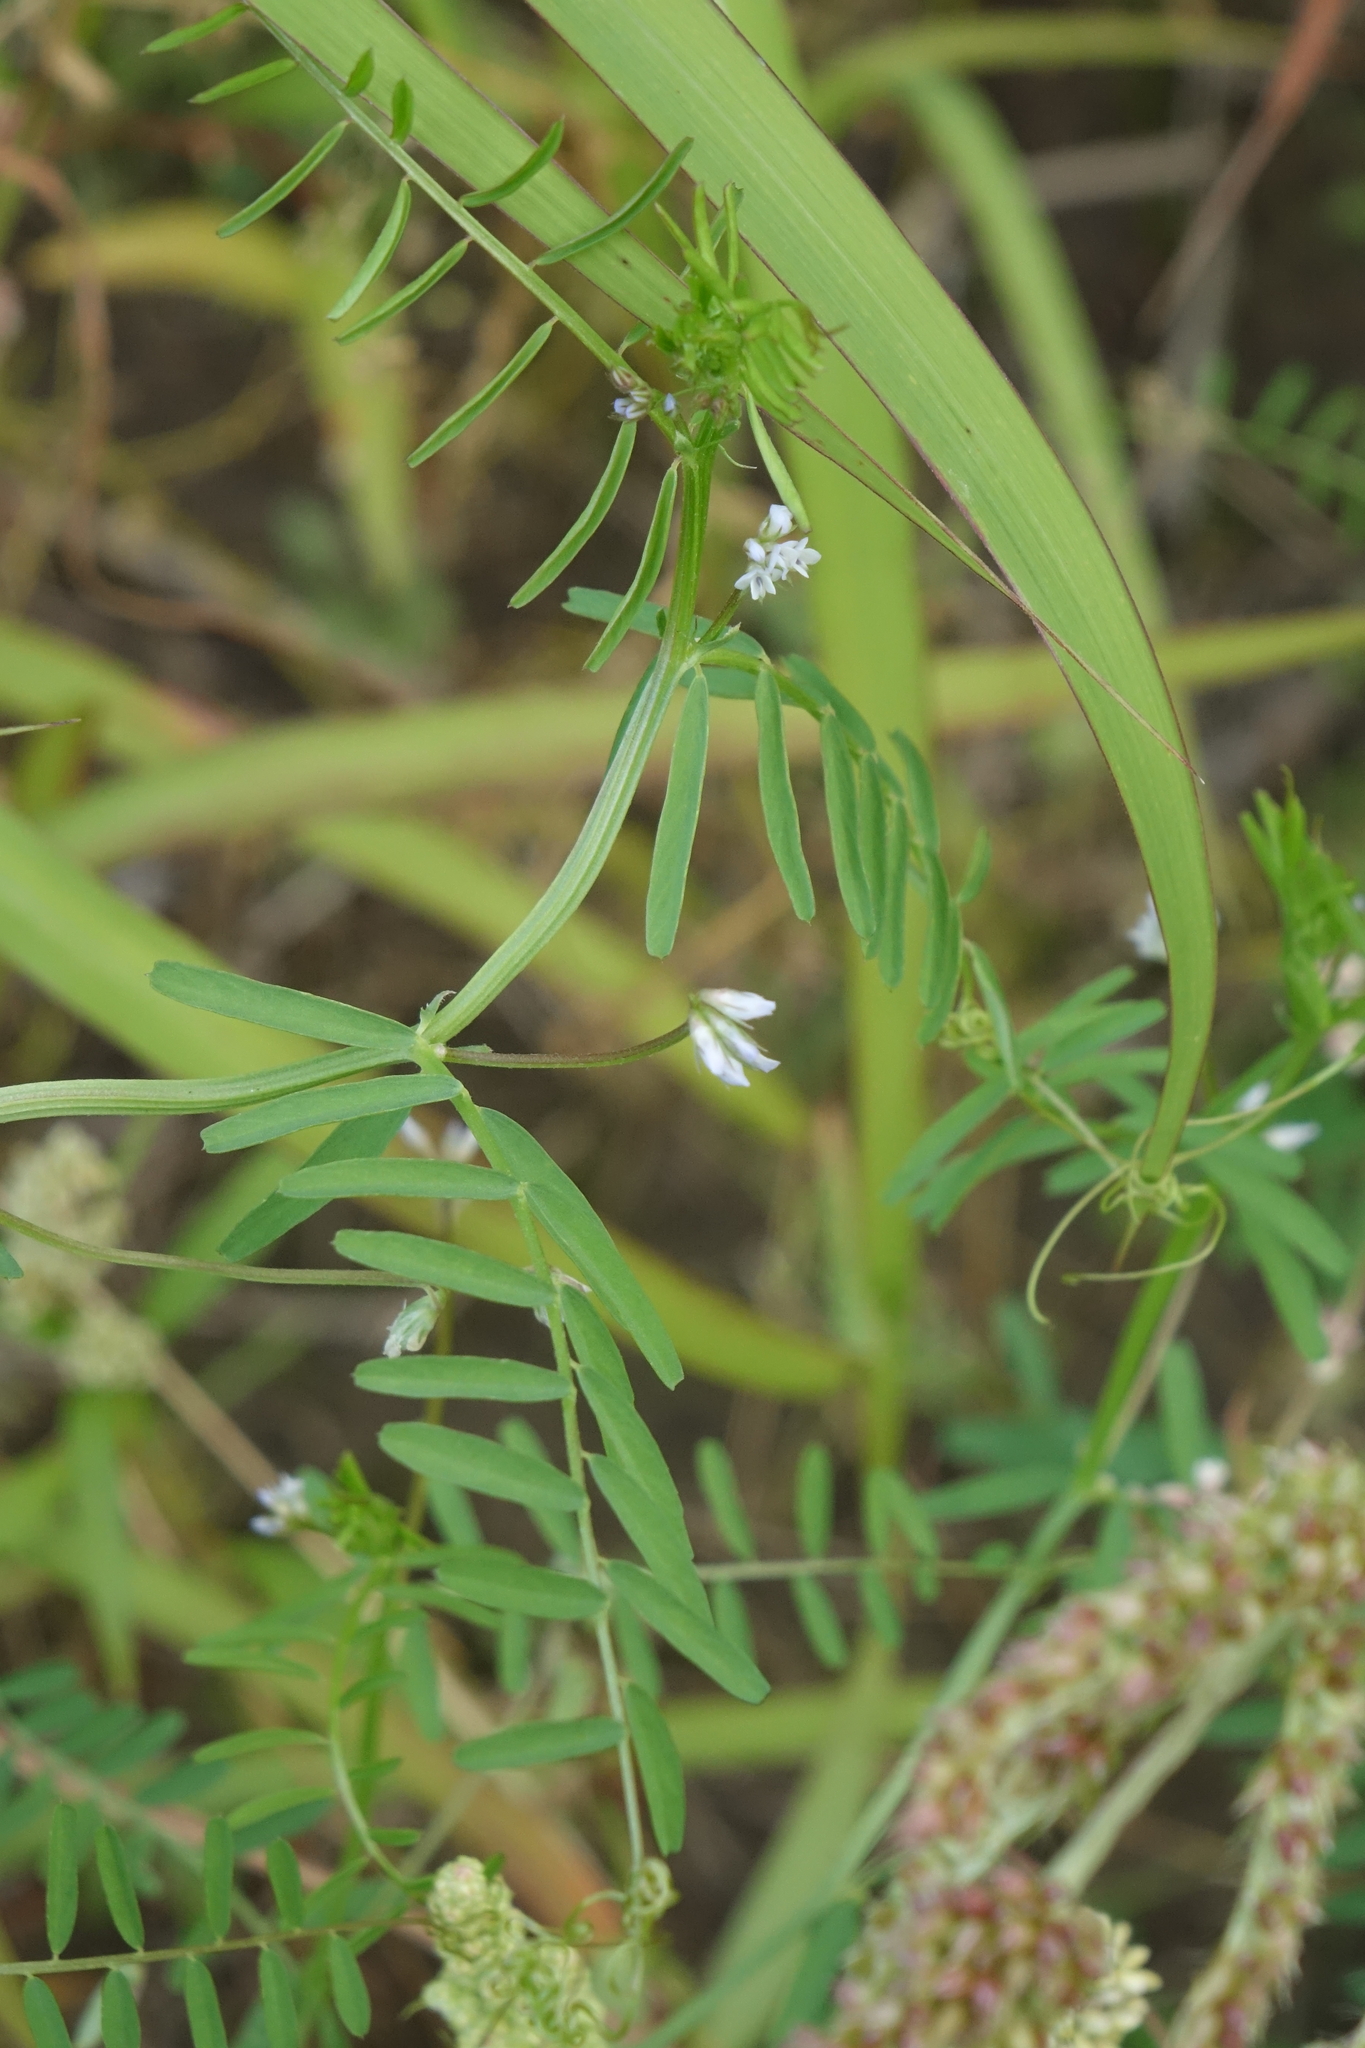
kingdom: Plantae
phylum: Tracheophyta
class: Magnoliopsida
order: Fabales
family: Fabaceae
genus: Vicia
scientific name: Vicia hirsuta
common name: Tiny vetch
